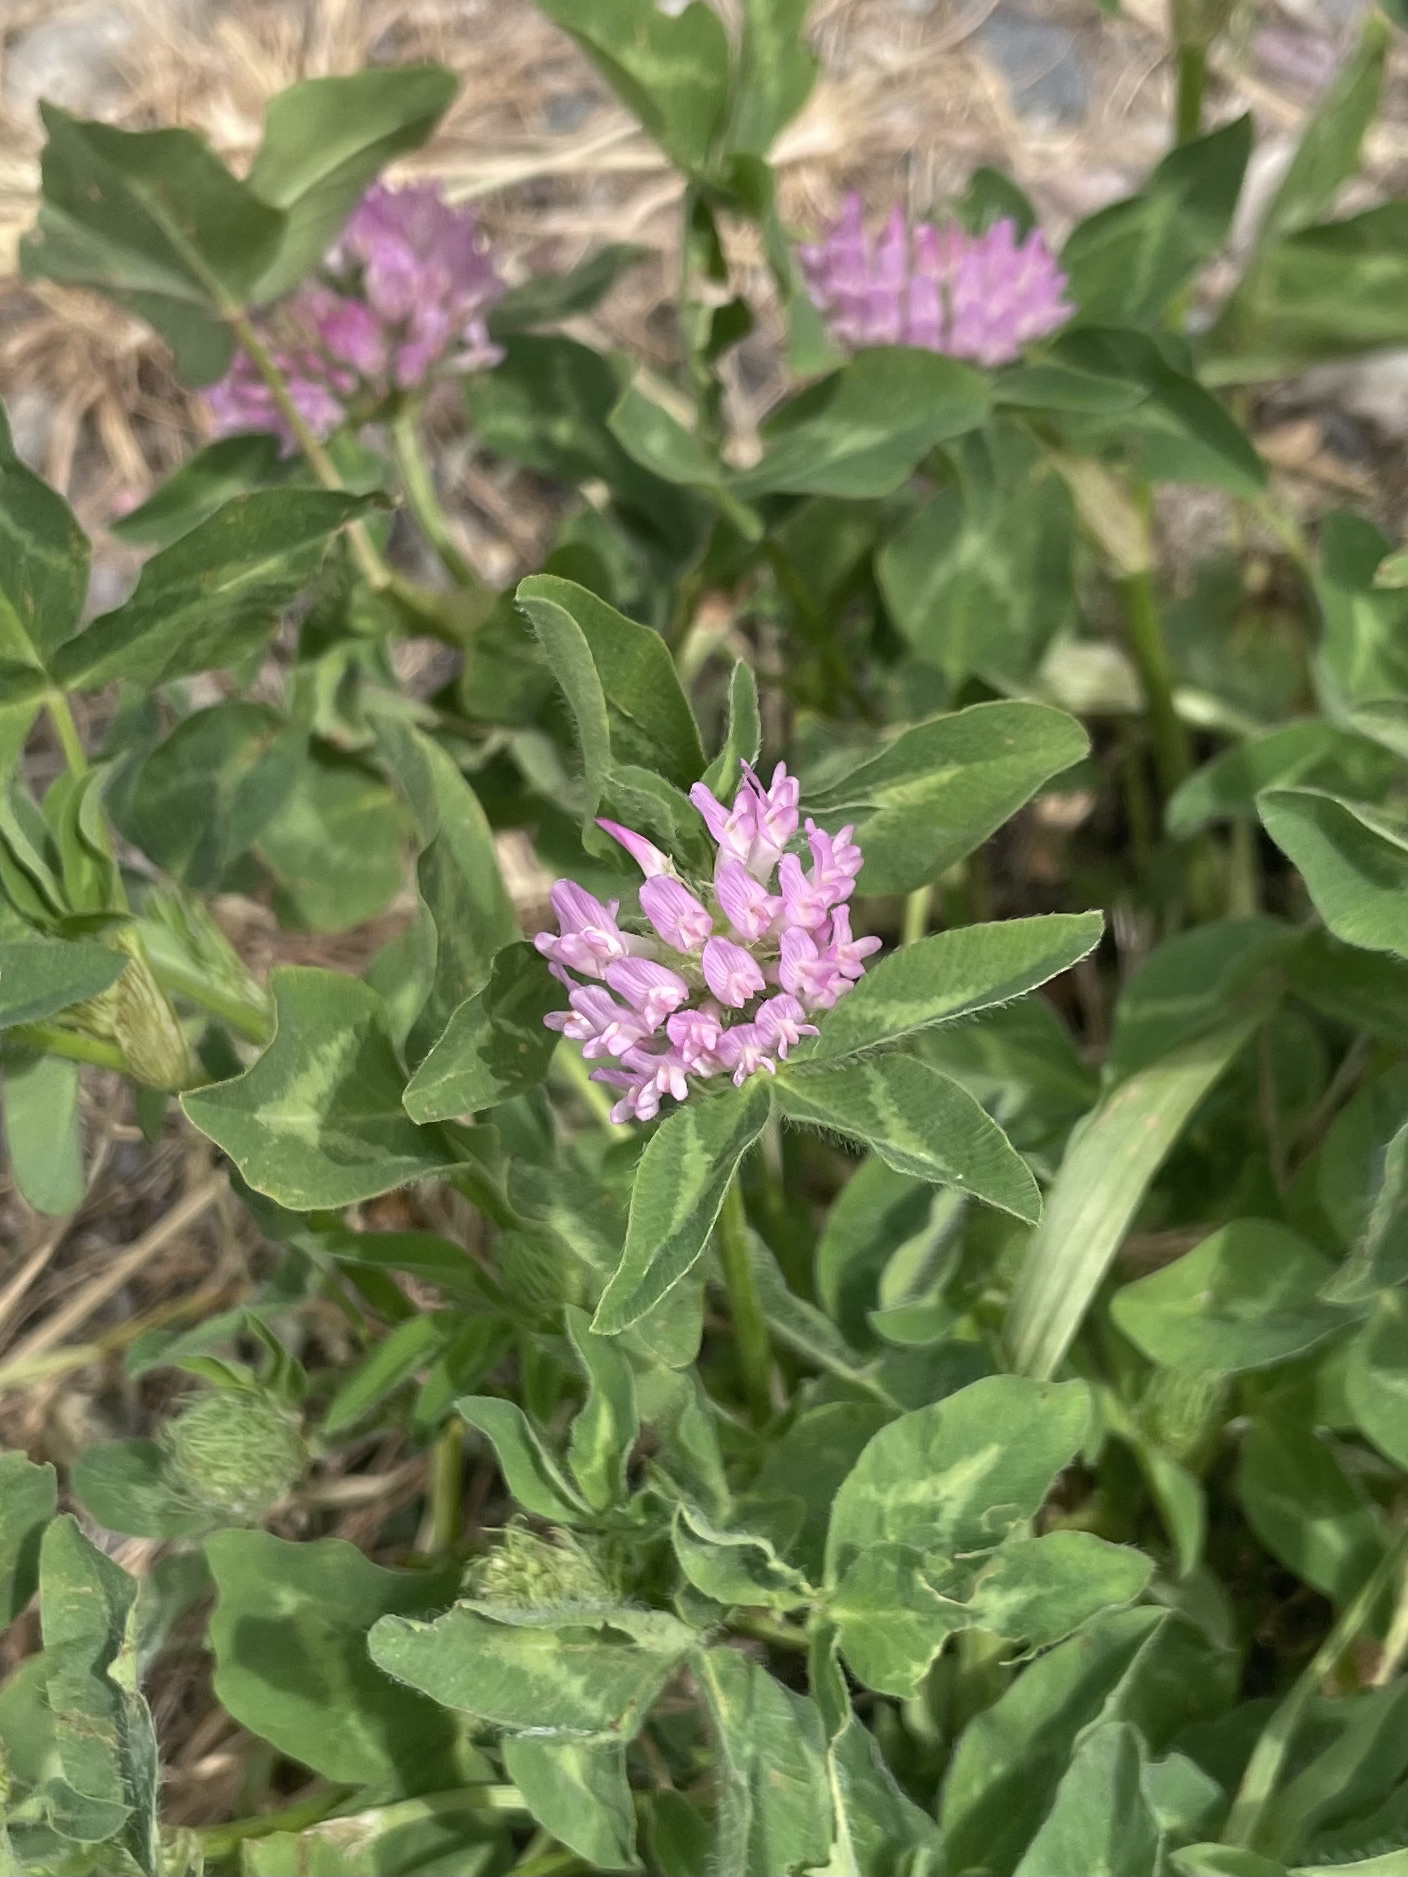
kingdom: Plantae
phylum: Tracheophyta
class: Magnoliopsida
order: Fabales
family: Fabaceae
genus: Trifolium
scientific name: Trifolium pratense
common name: Red clover
